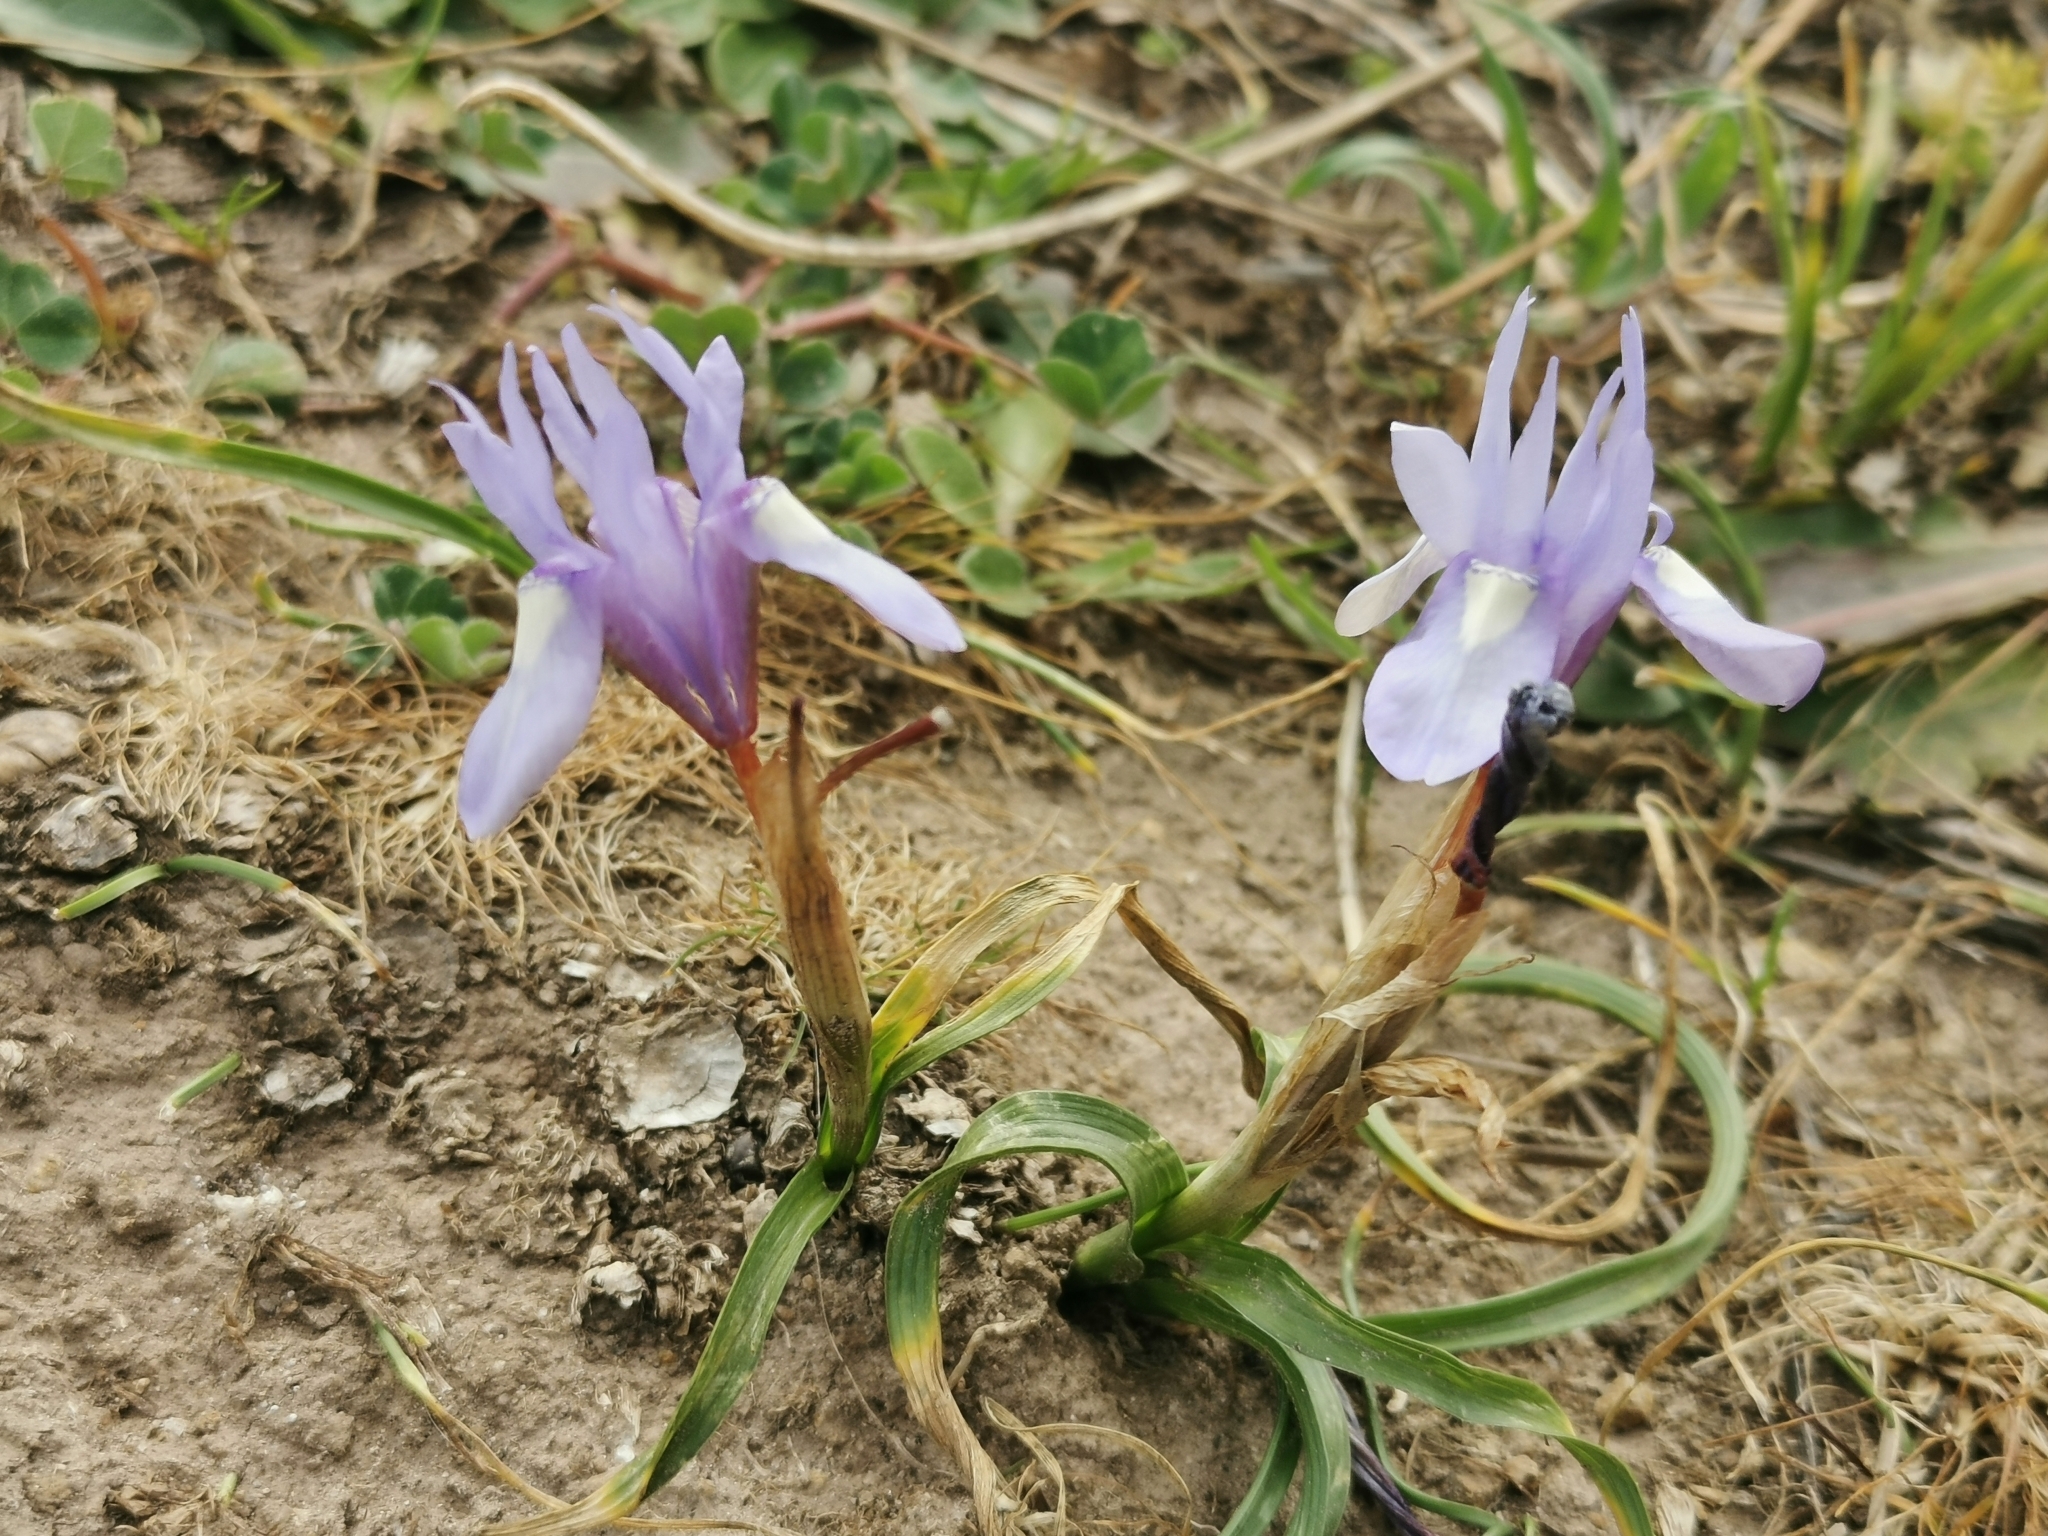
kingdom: Plantae
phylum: Tracheophyta
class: Liliopsida
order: Asparagales
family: Iridaceae
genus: Moraea
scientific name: Moraea sisyrinchium
